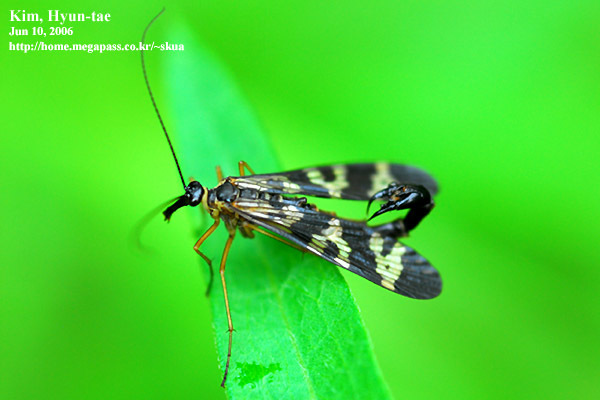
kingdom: Animalia
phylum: Arthropoda
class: Insecta
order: Mecoptera
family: Panorpidae
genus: Panorpa
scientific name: Panorpa amurensis
